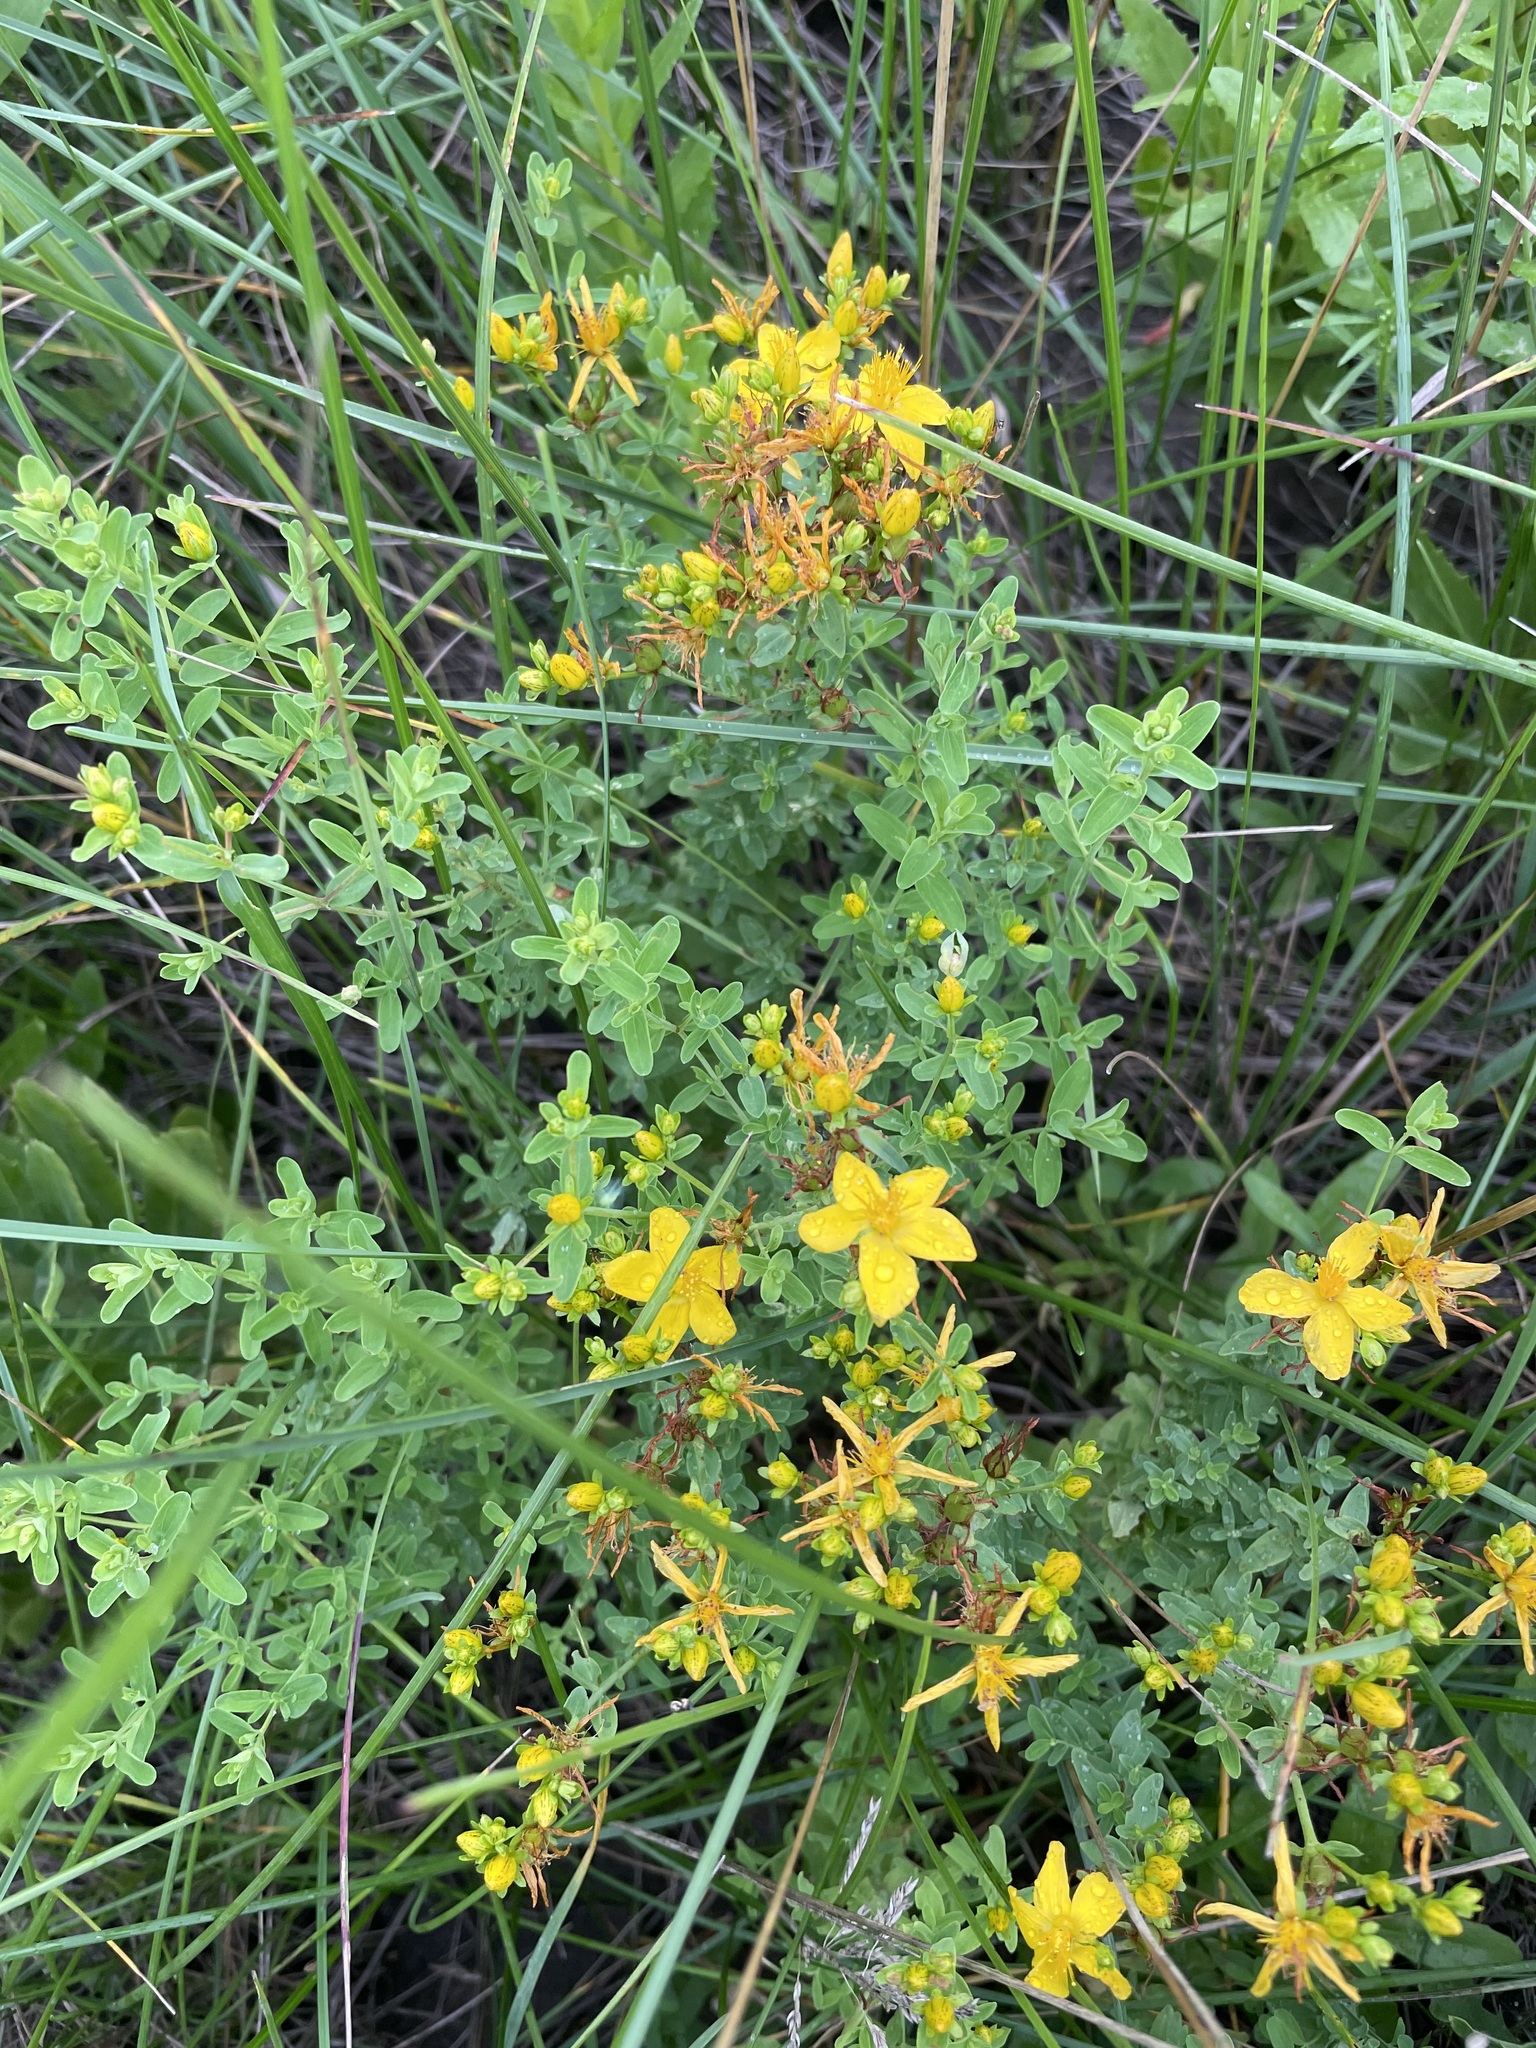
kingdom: Plantae
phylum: Tracheophyta
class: Magnoliopsida
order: Malpighiales
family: Hypericaceae
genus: Hypericum
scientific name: Hypericum perforatum
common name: Common st. johnswort
